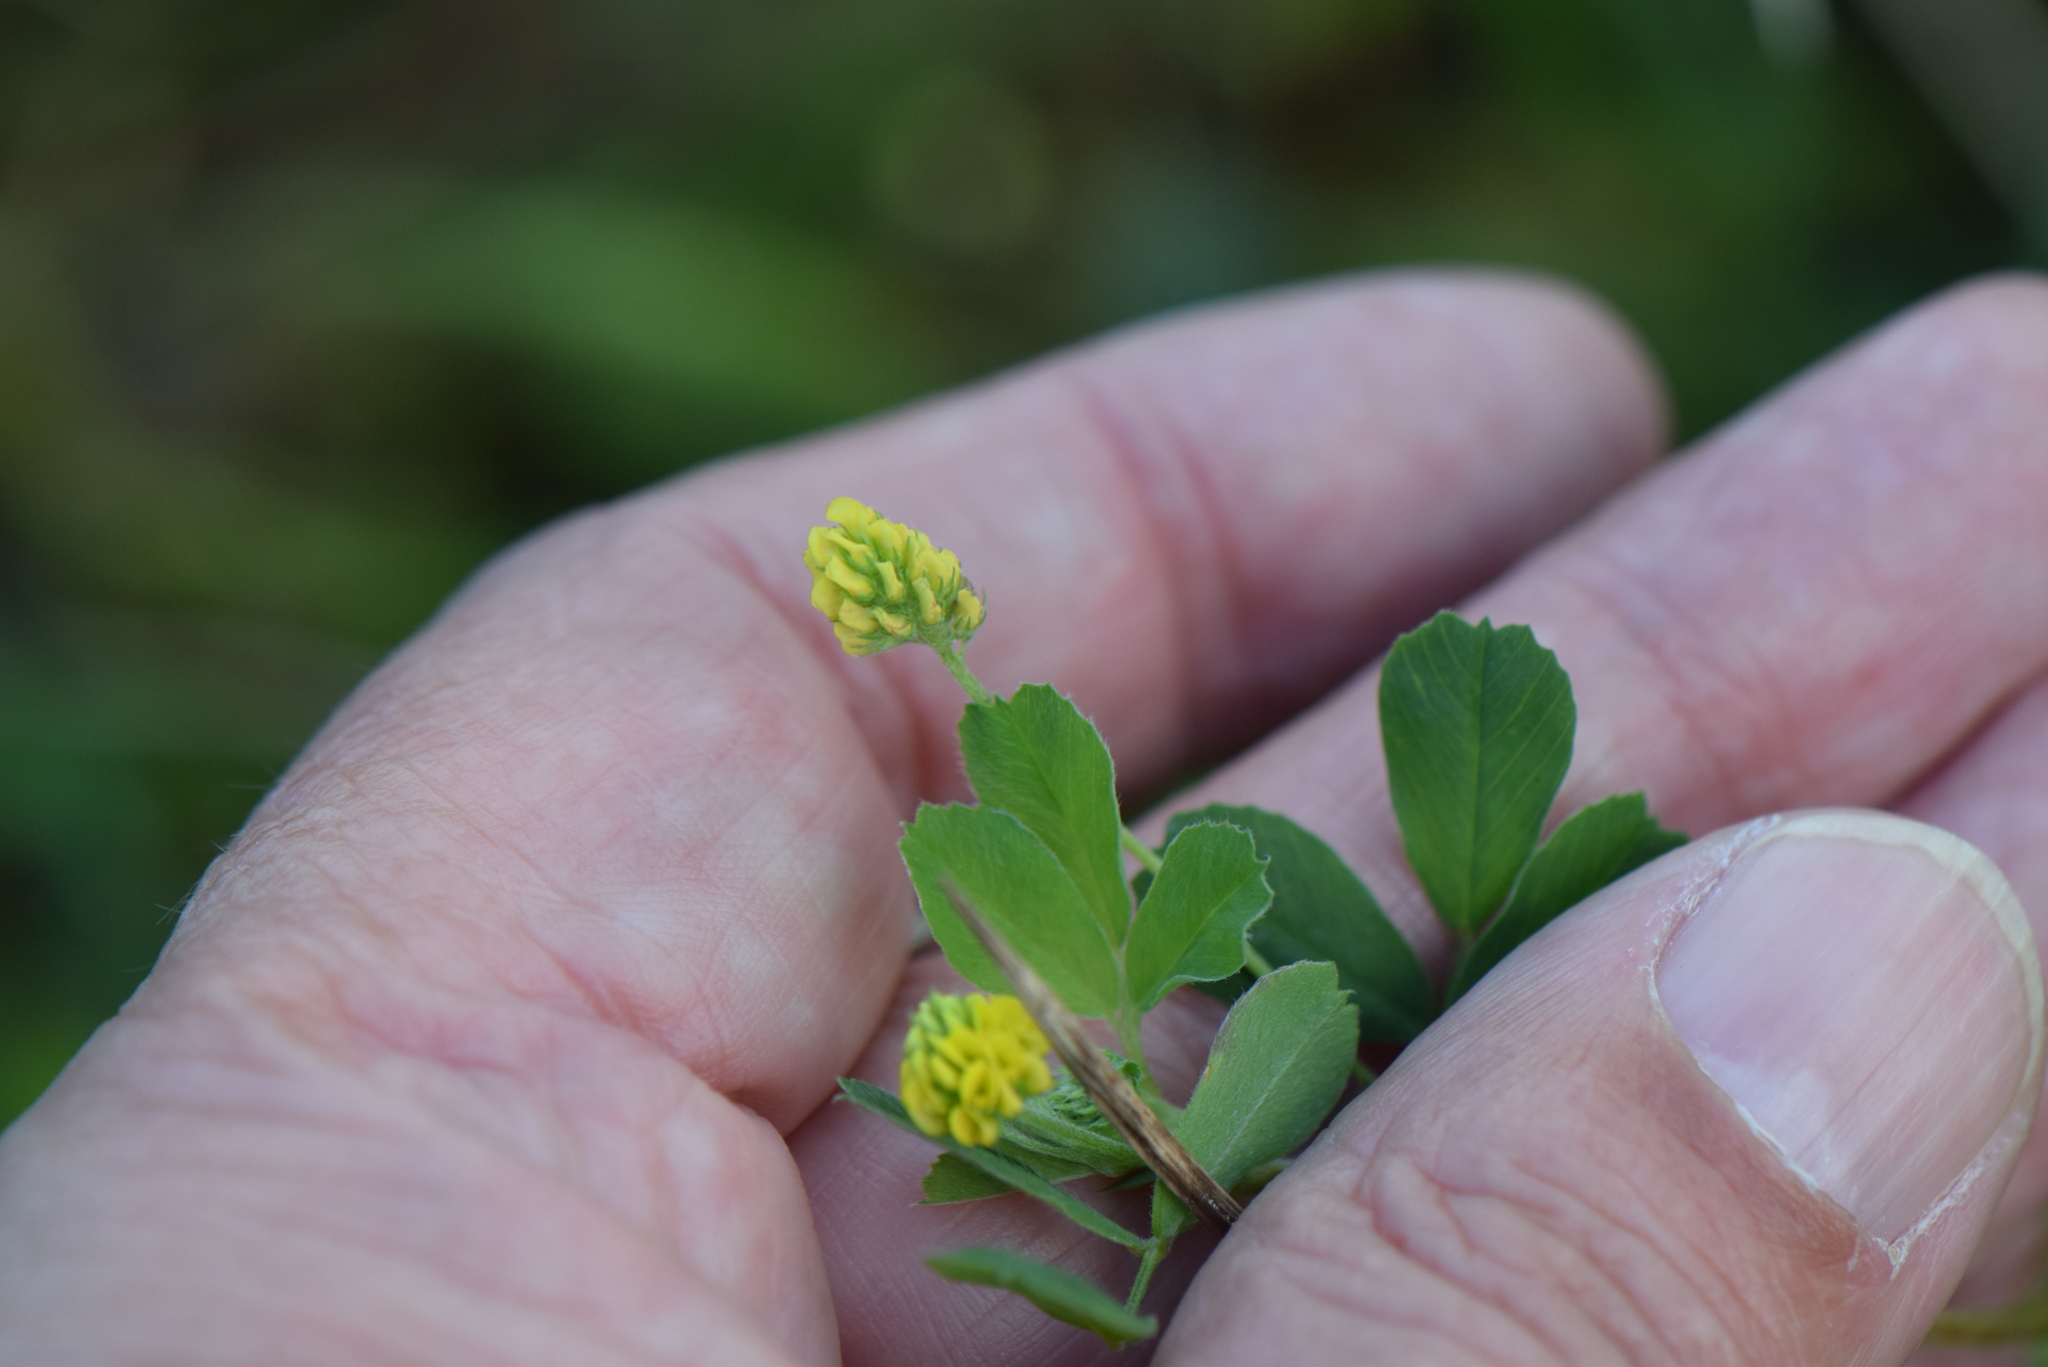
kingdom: Plantae
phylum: Tracheophyta
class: Magnoliopsida
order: Fabales
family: Fabaceae
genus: Medicago
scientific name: Medicago lupulina
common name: Black medick
